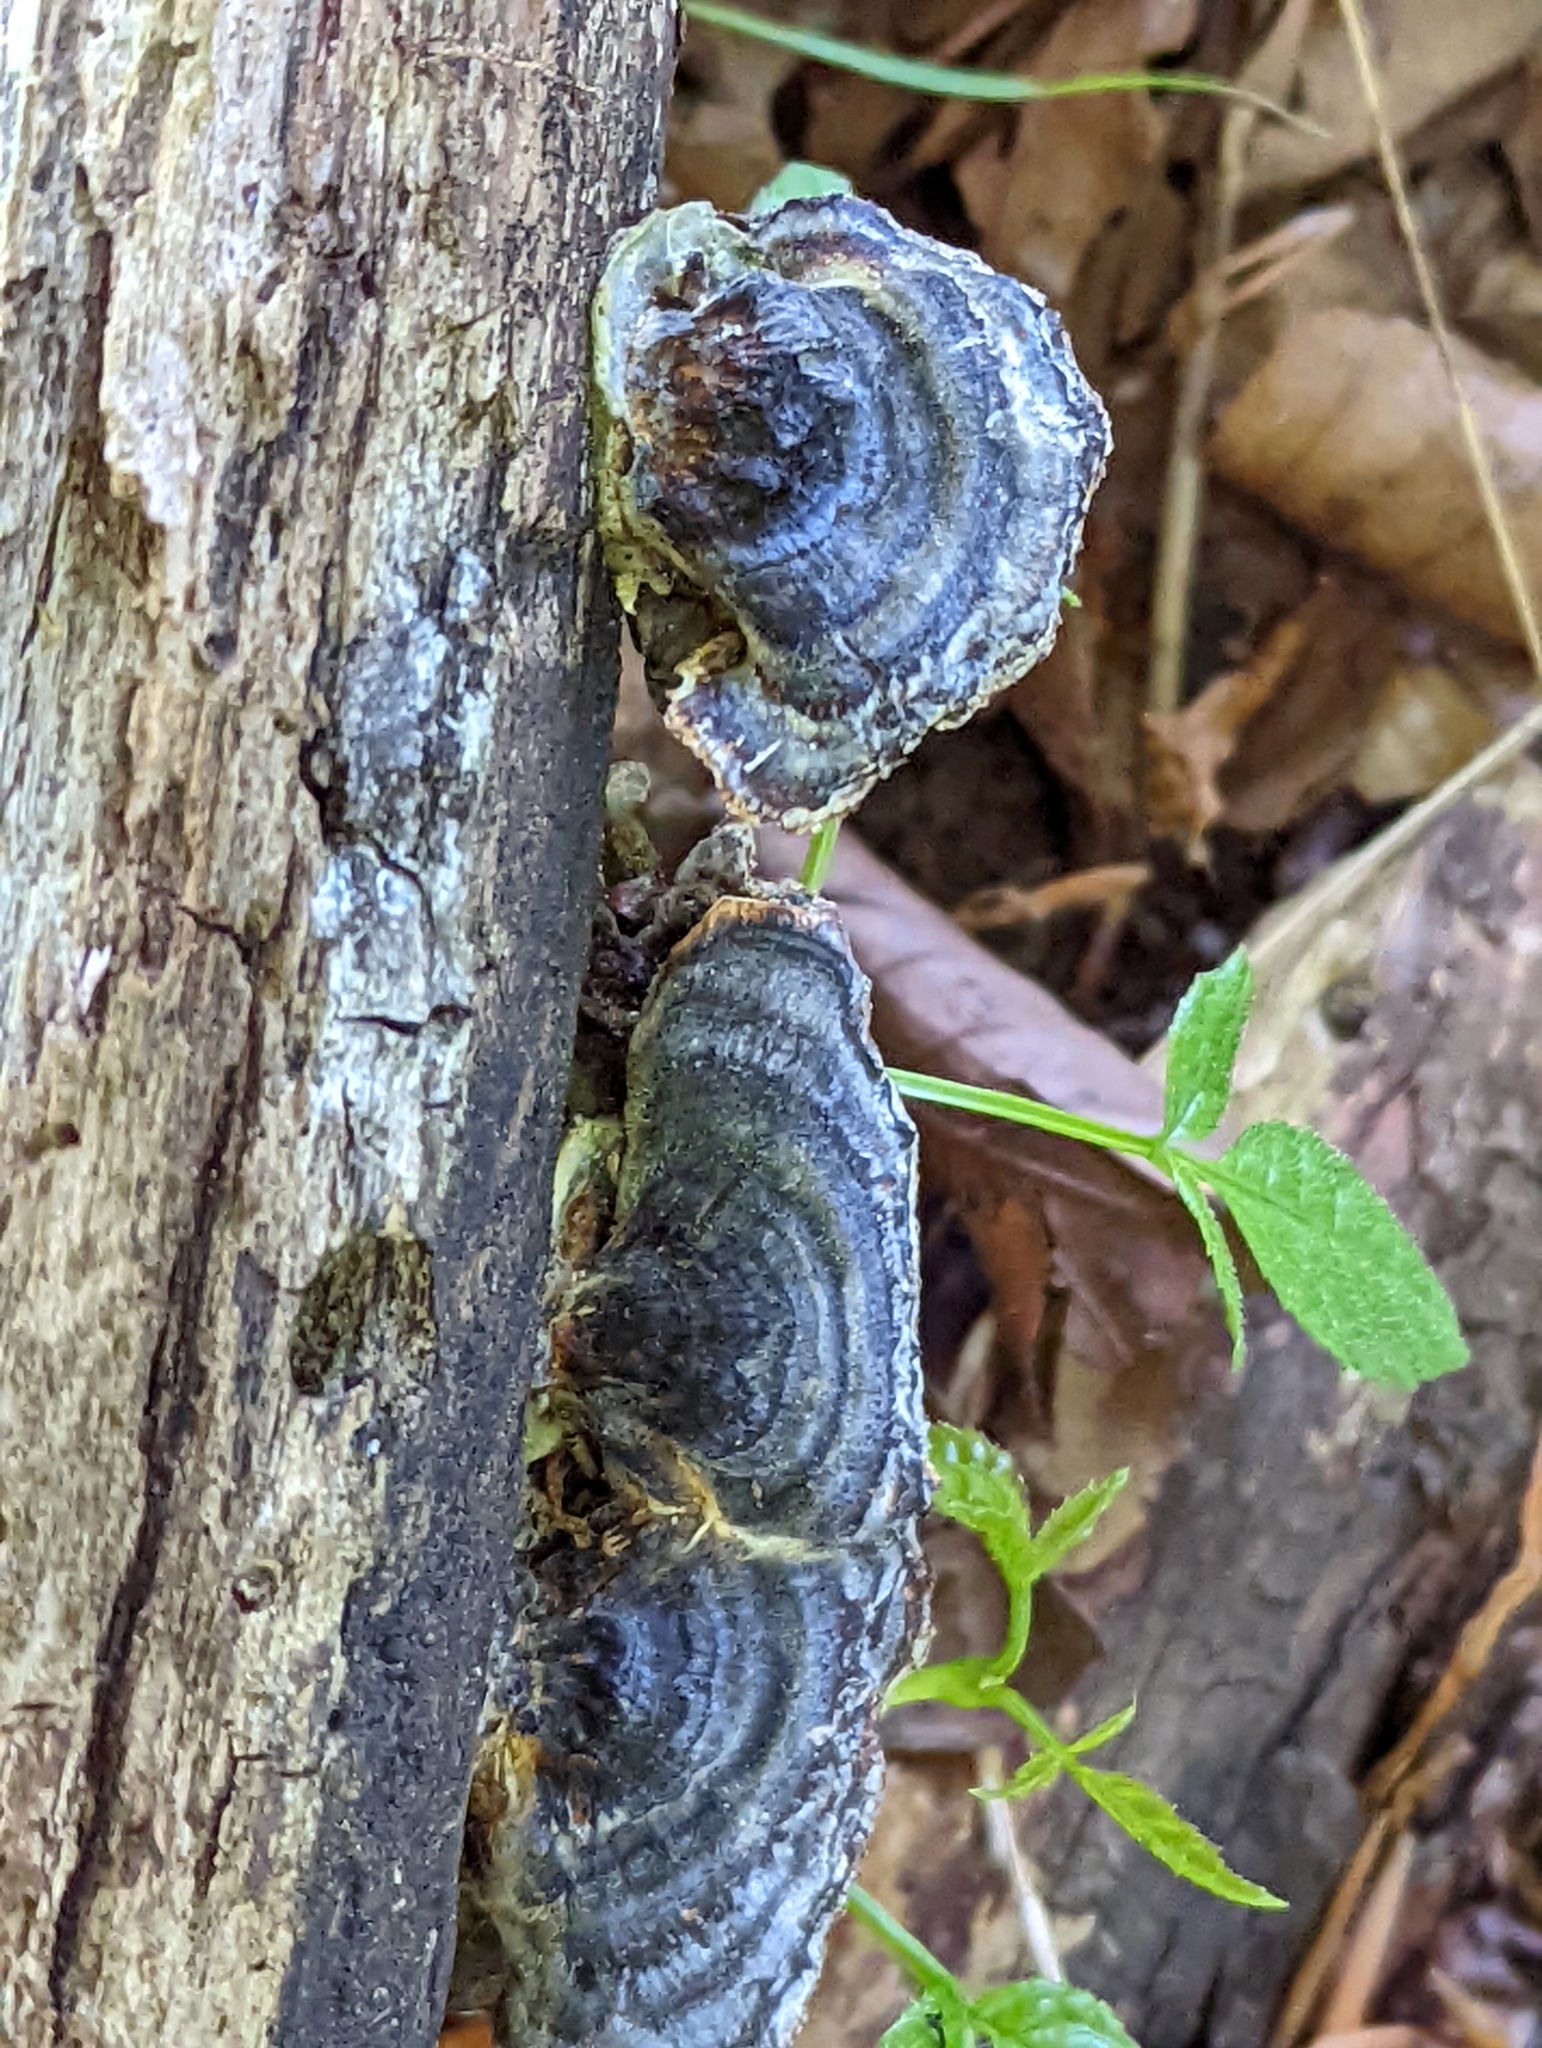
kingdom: Fungi
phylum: Basidiomycota
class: Agaricomycetes
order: Polyporales
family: Polyporaceae
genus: Trametes
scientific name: Trametes versicolor
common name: Turkeytail
